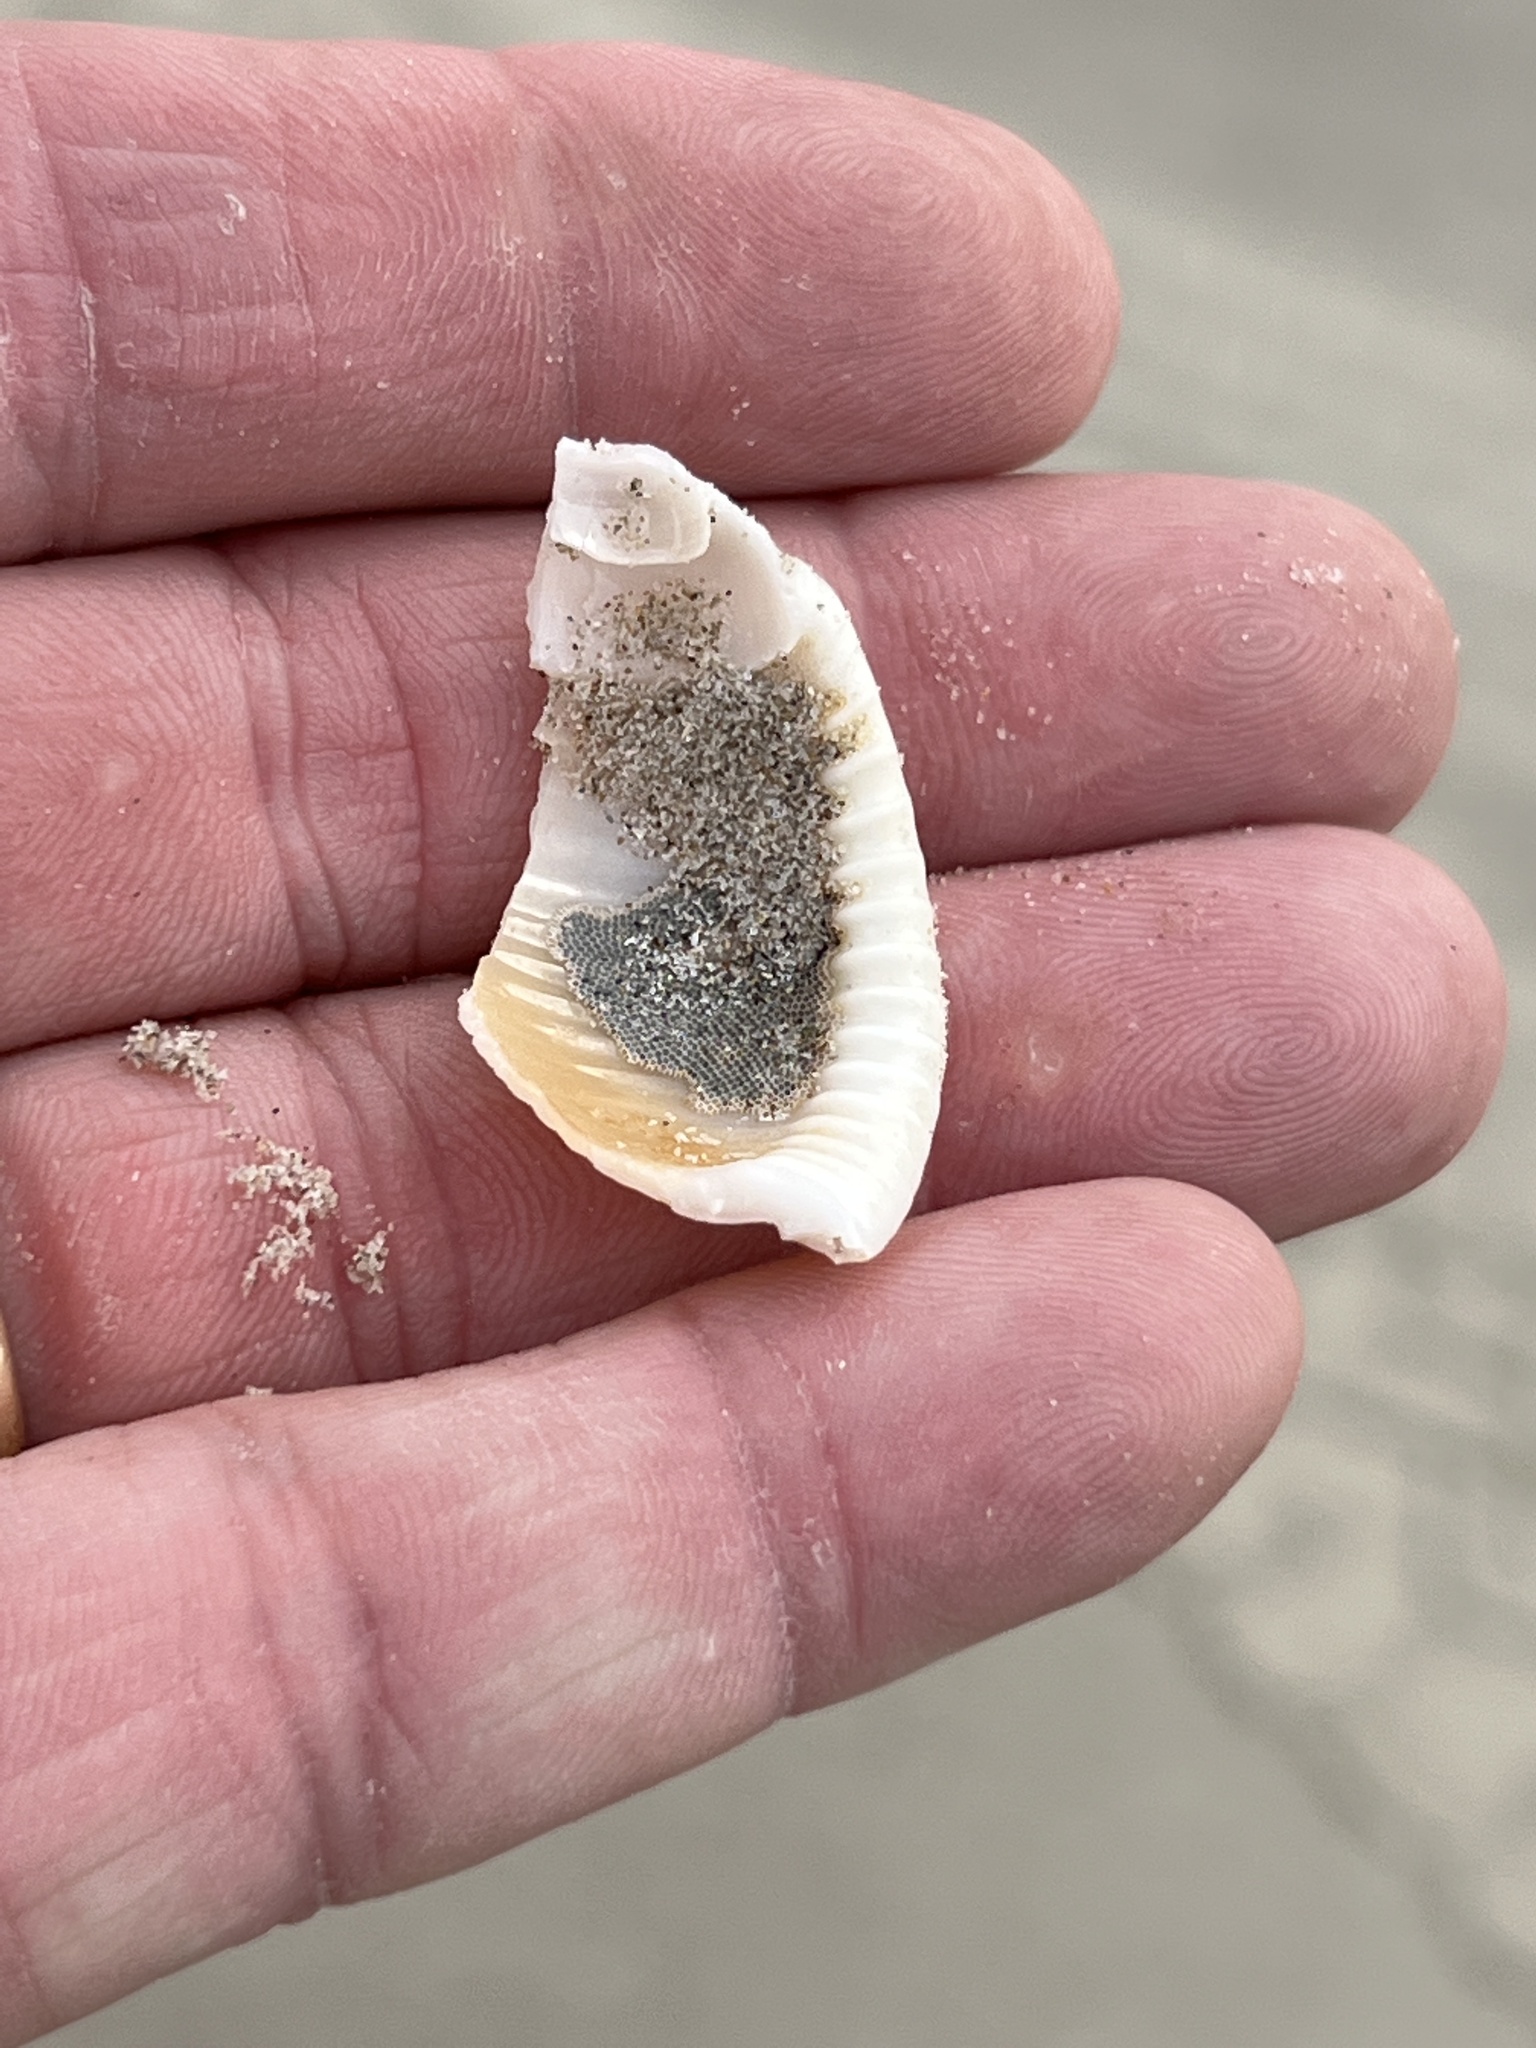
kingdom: Animalia
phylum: Mollusca
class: Gastropoda
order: Littorinimorpha
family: Cassidae
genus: Semicassis
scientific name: Semicassis granulata
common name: Scotch bonnet
